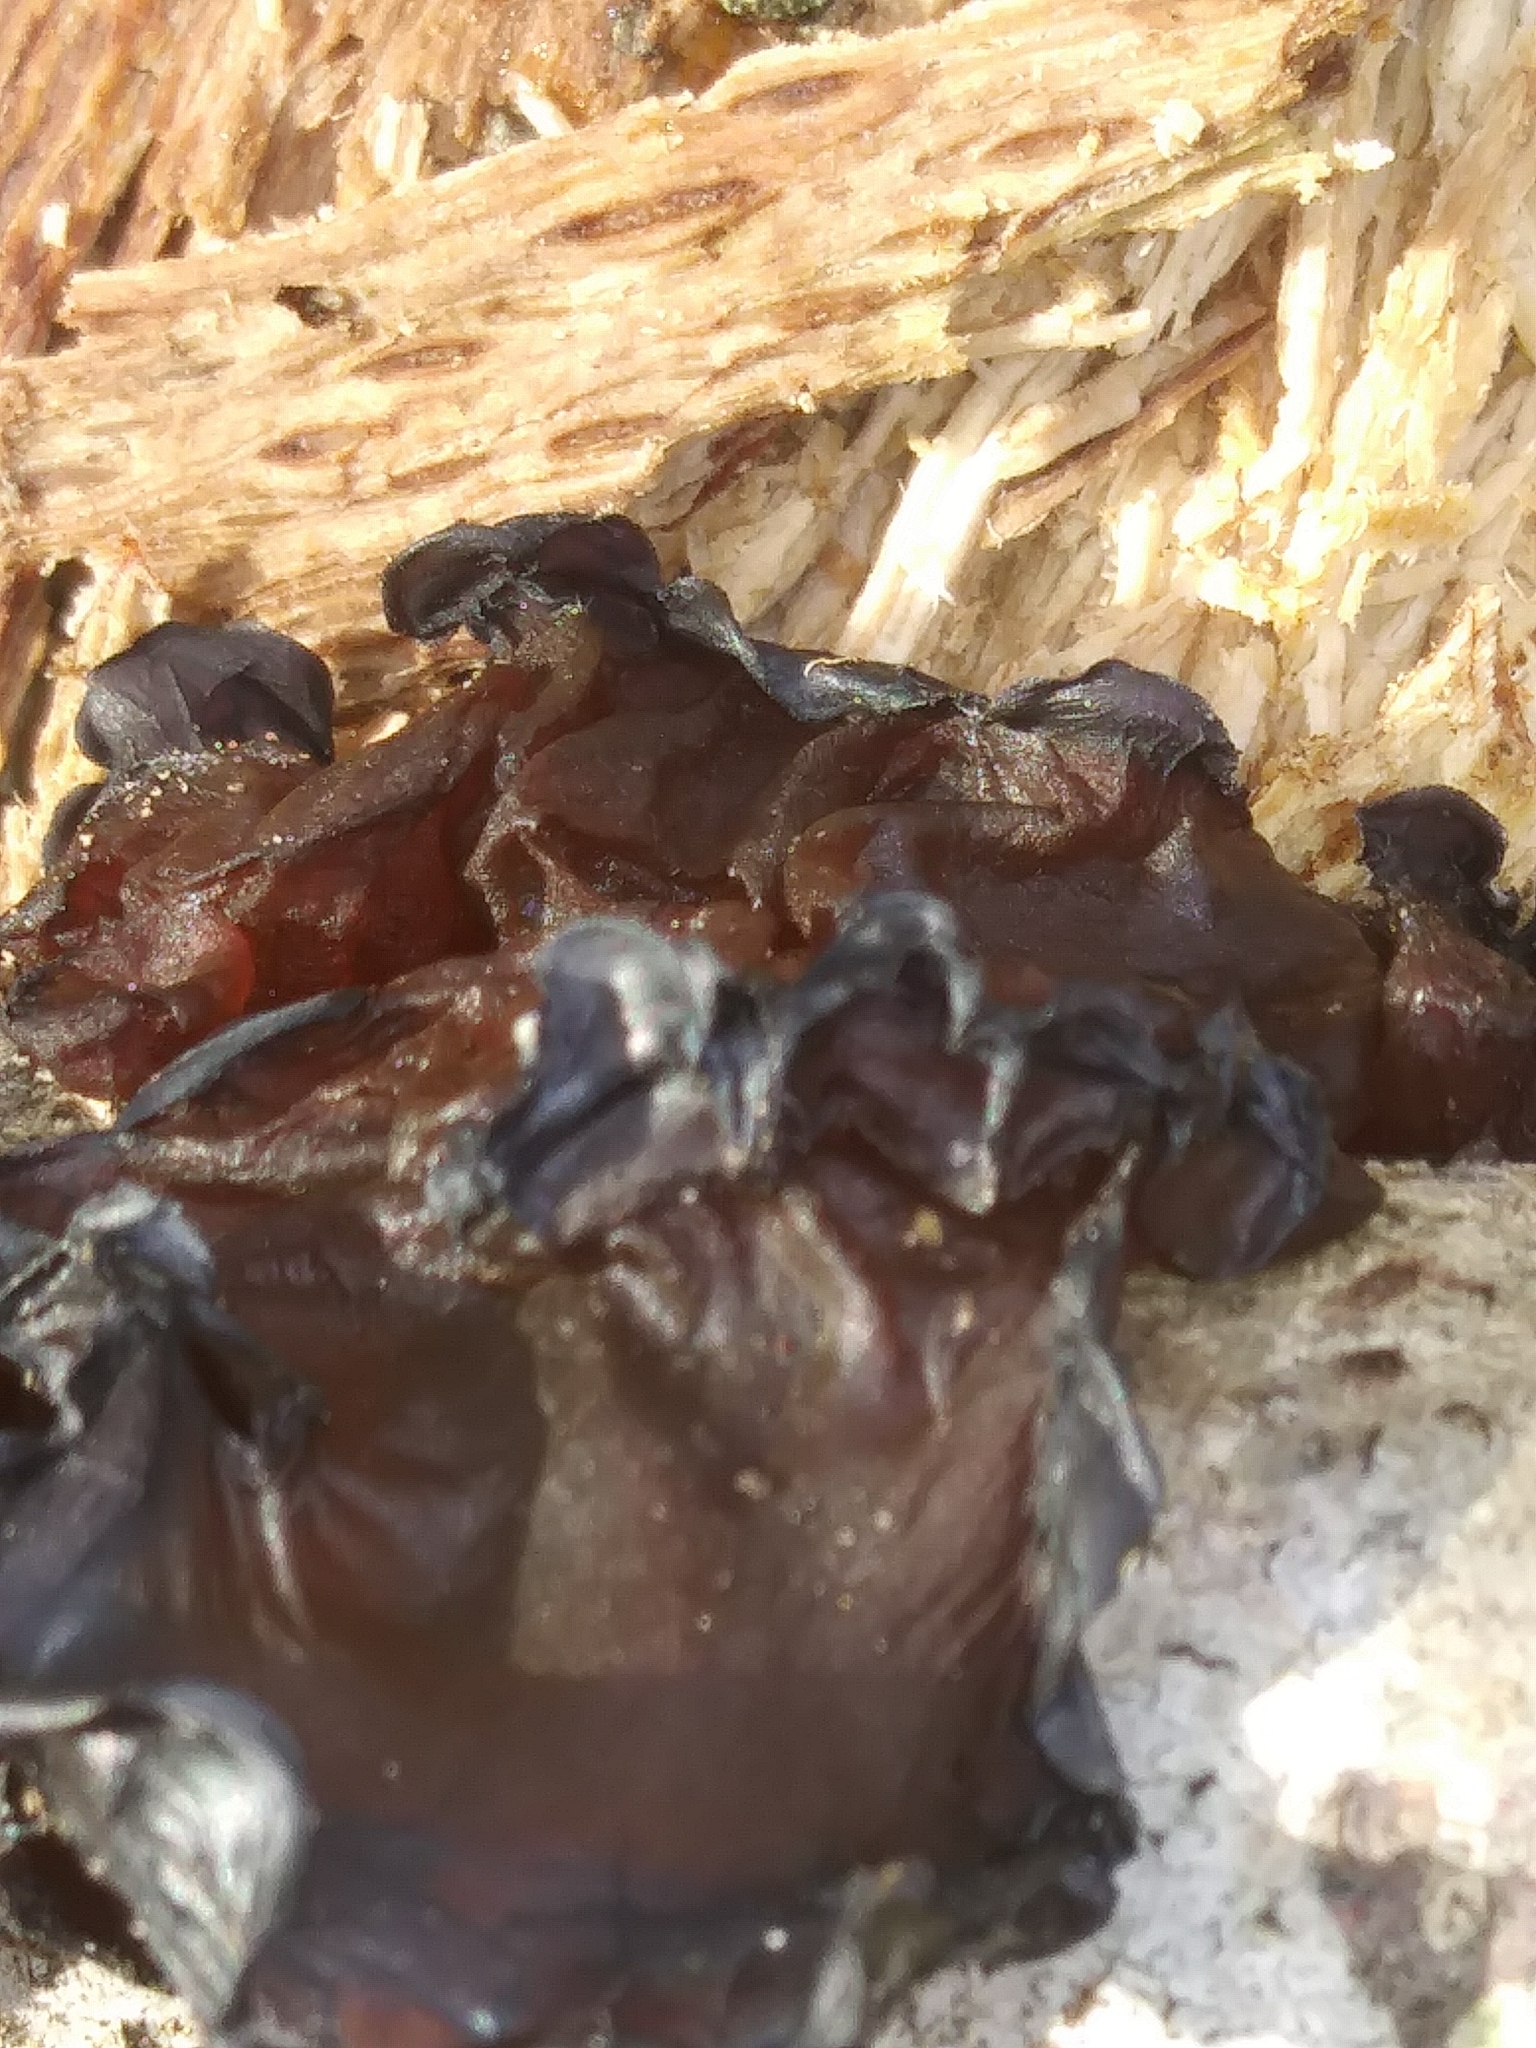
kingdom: Fungi
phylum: Basidiomycota
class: Agaricomycetes
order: Auriculariales
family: Auriculariaceae
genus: Exidia
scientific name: Exidia
